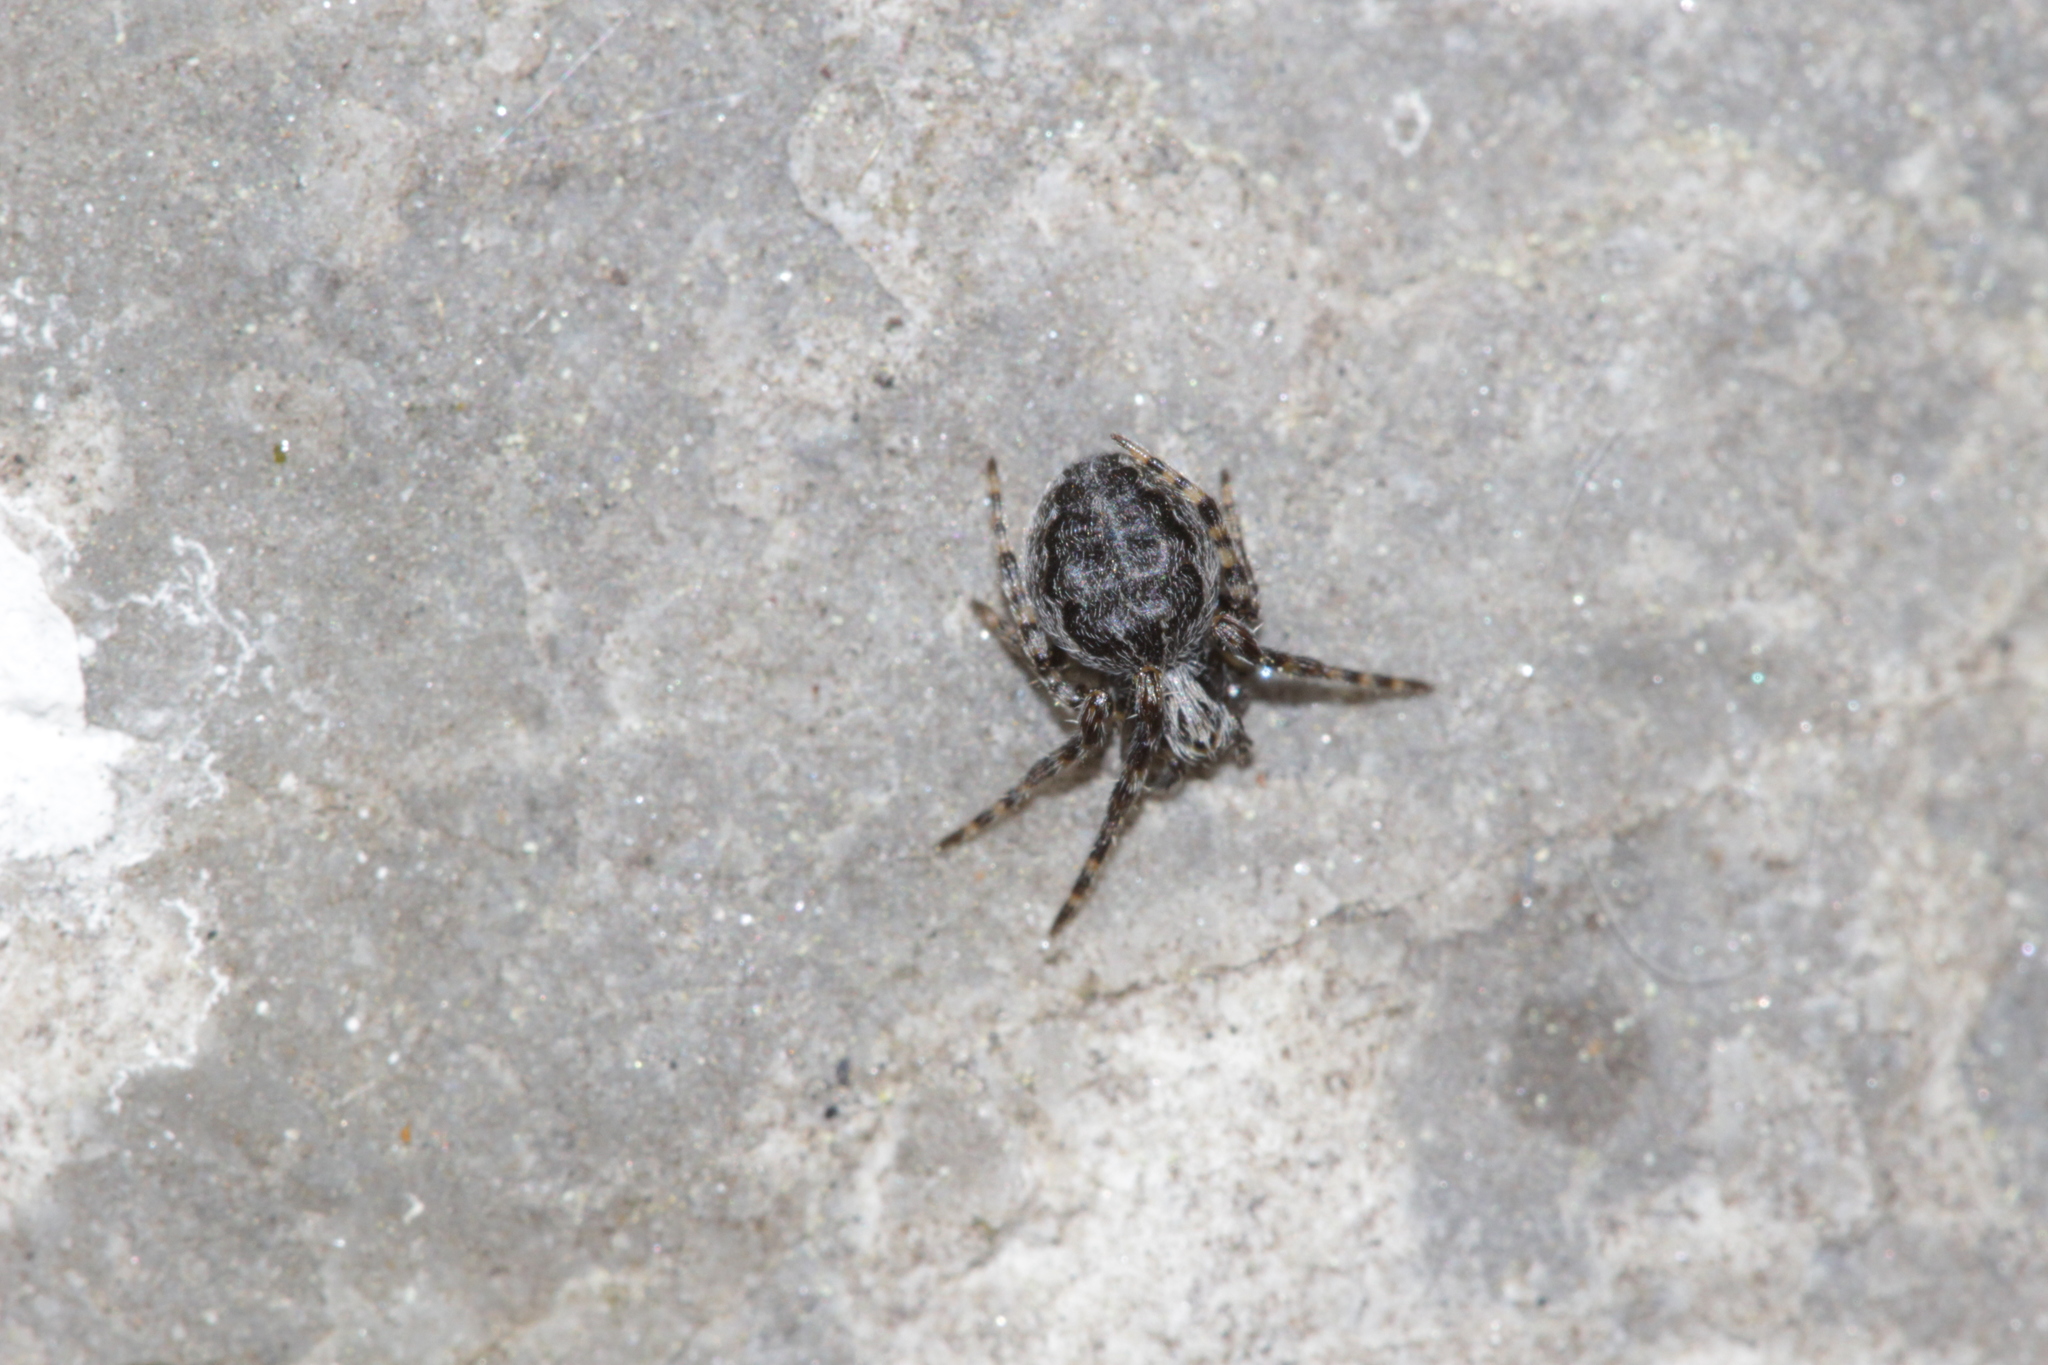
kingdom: Animalia
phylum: Arthropoda
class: Arachnida
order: Araneae
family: Araneidae
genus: Nuctenea
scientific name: Nuctenea umbratica
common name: Toad spider
